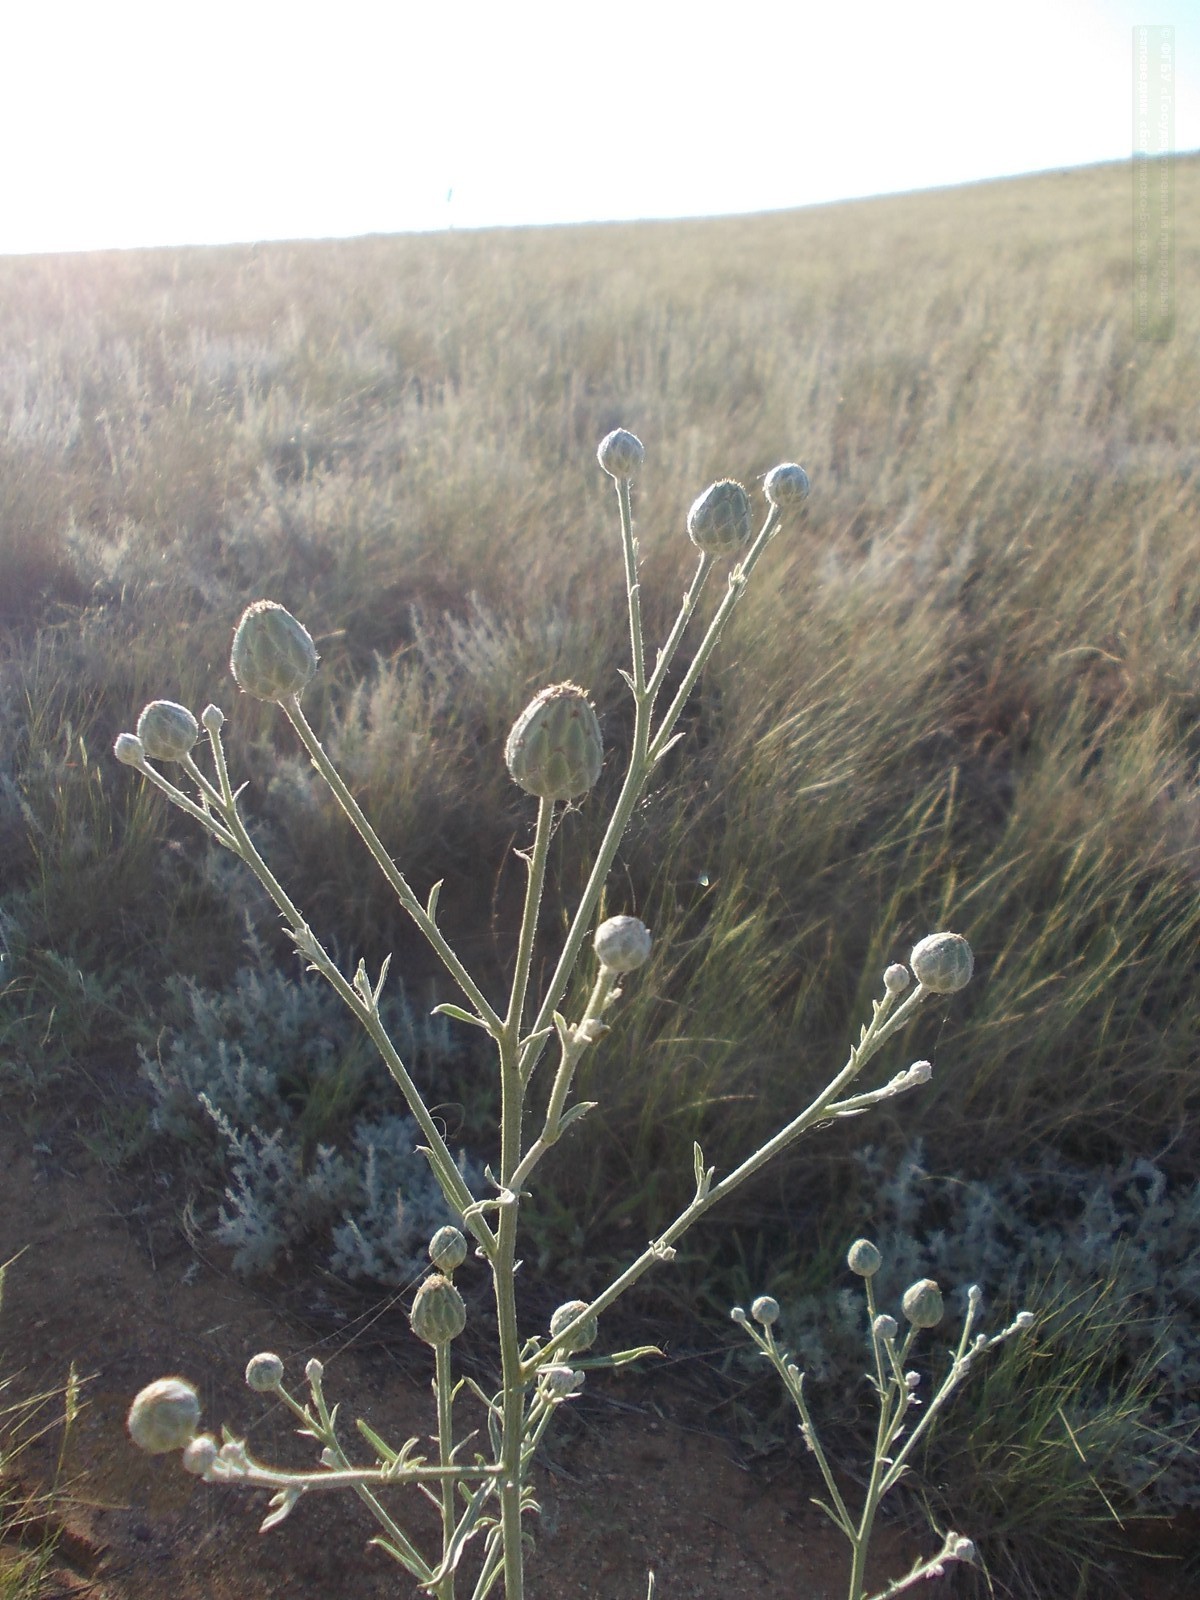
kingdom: Plantae
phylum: Tracheophyta
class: Magnoliopsida
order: Asterales
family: Asteraceae
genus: Centaurea
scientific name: Centaurea adpressa
